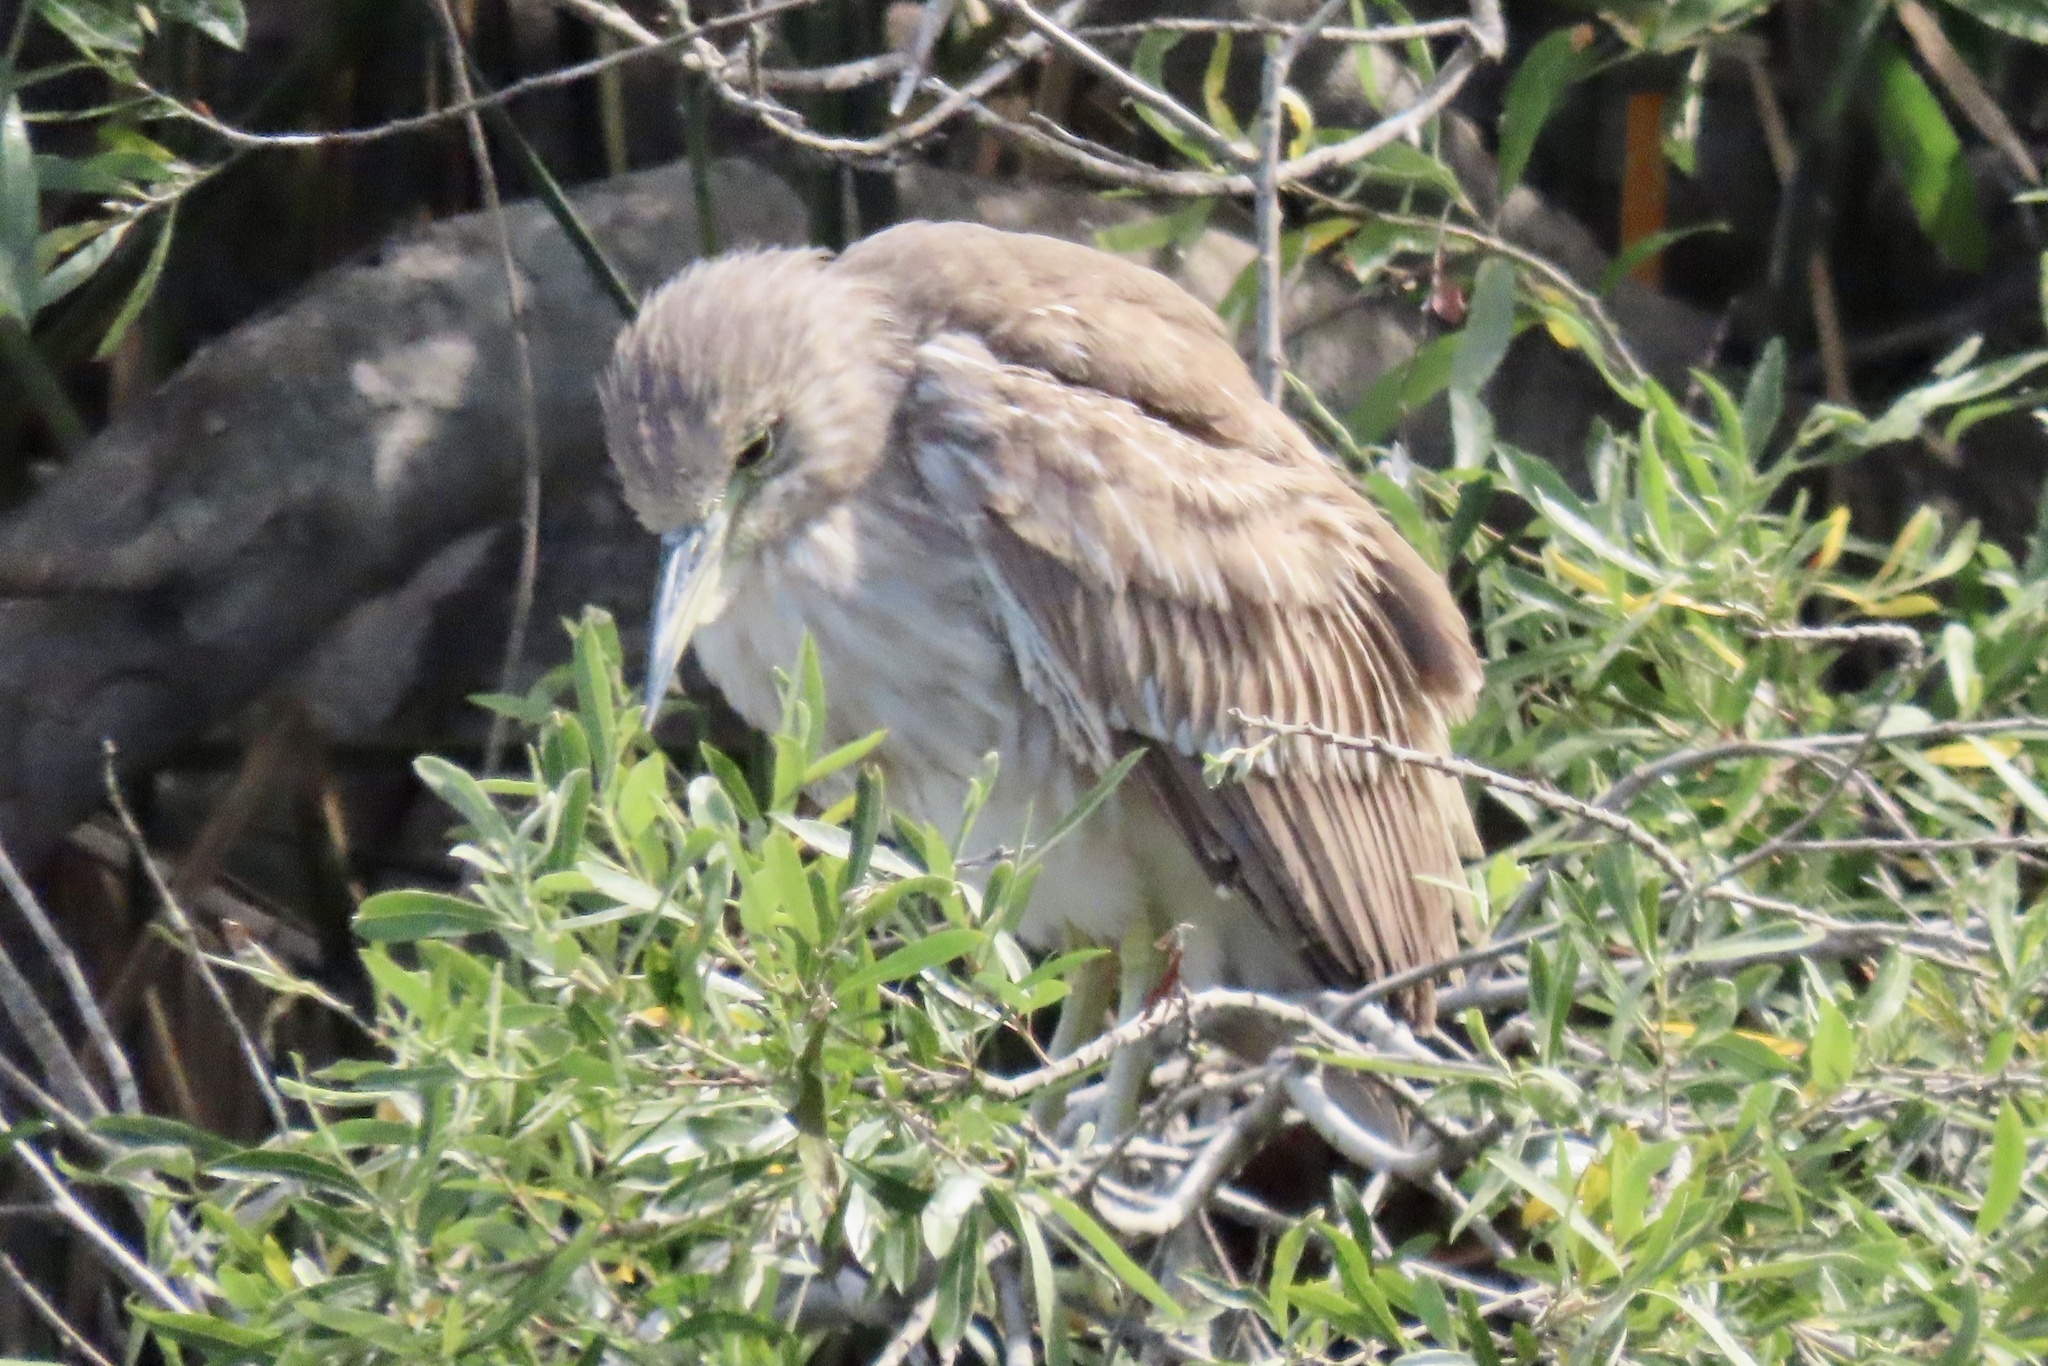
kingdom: Animalia
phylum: Chordata
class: Aves
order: Pelecaniformes
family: Ardeidae
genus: Nycticorax
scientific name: Nycticorax nycticorax
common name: Black-crowned night heron
